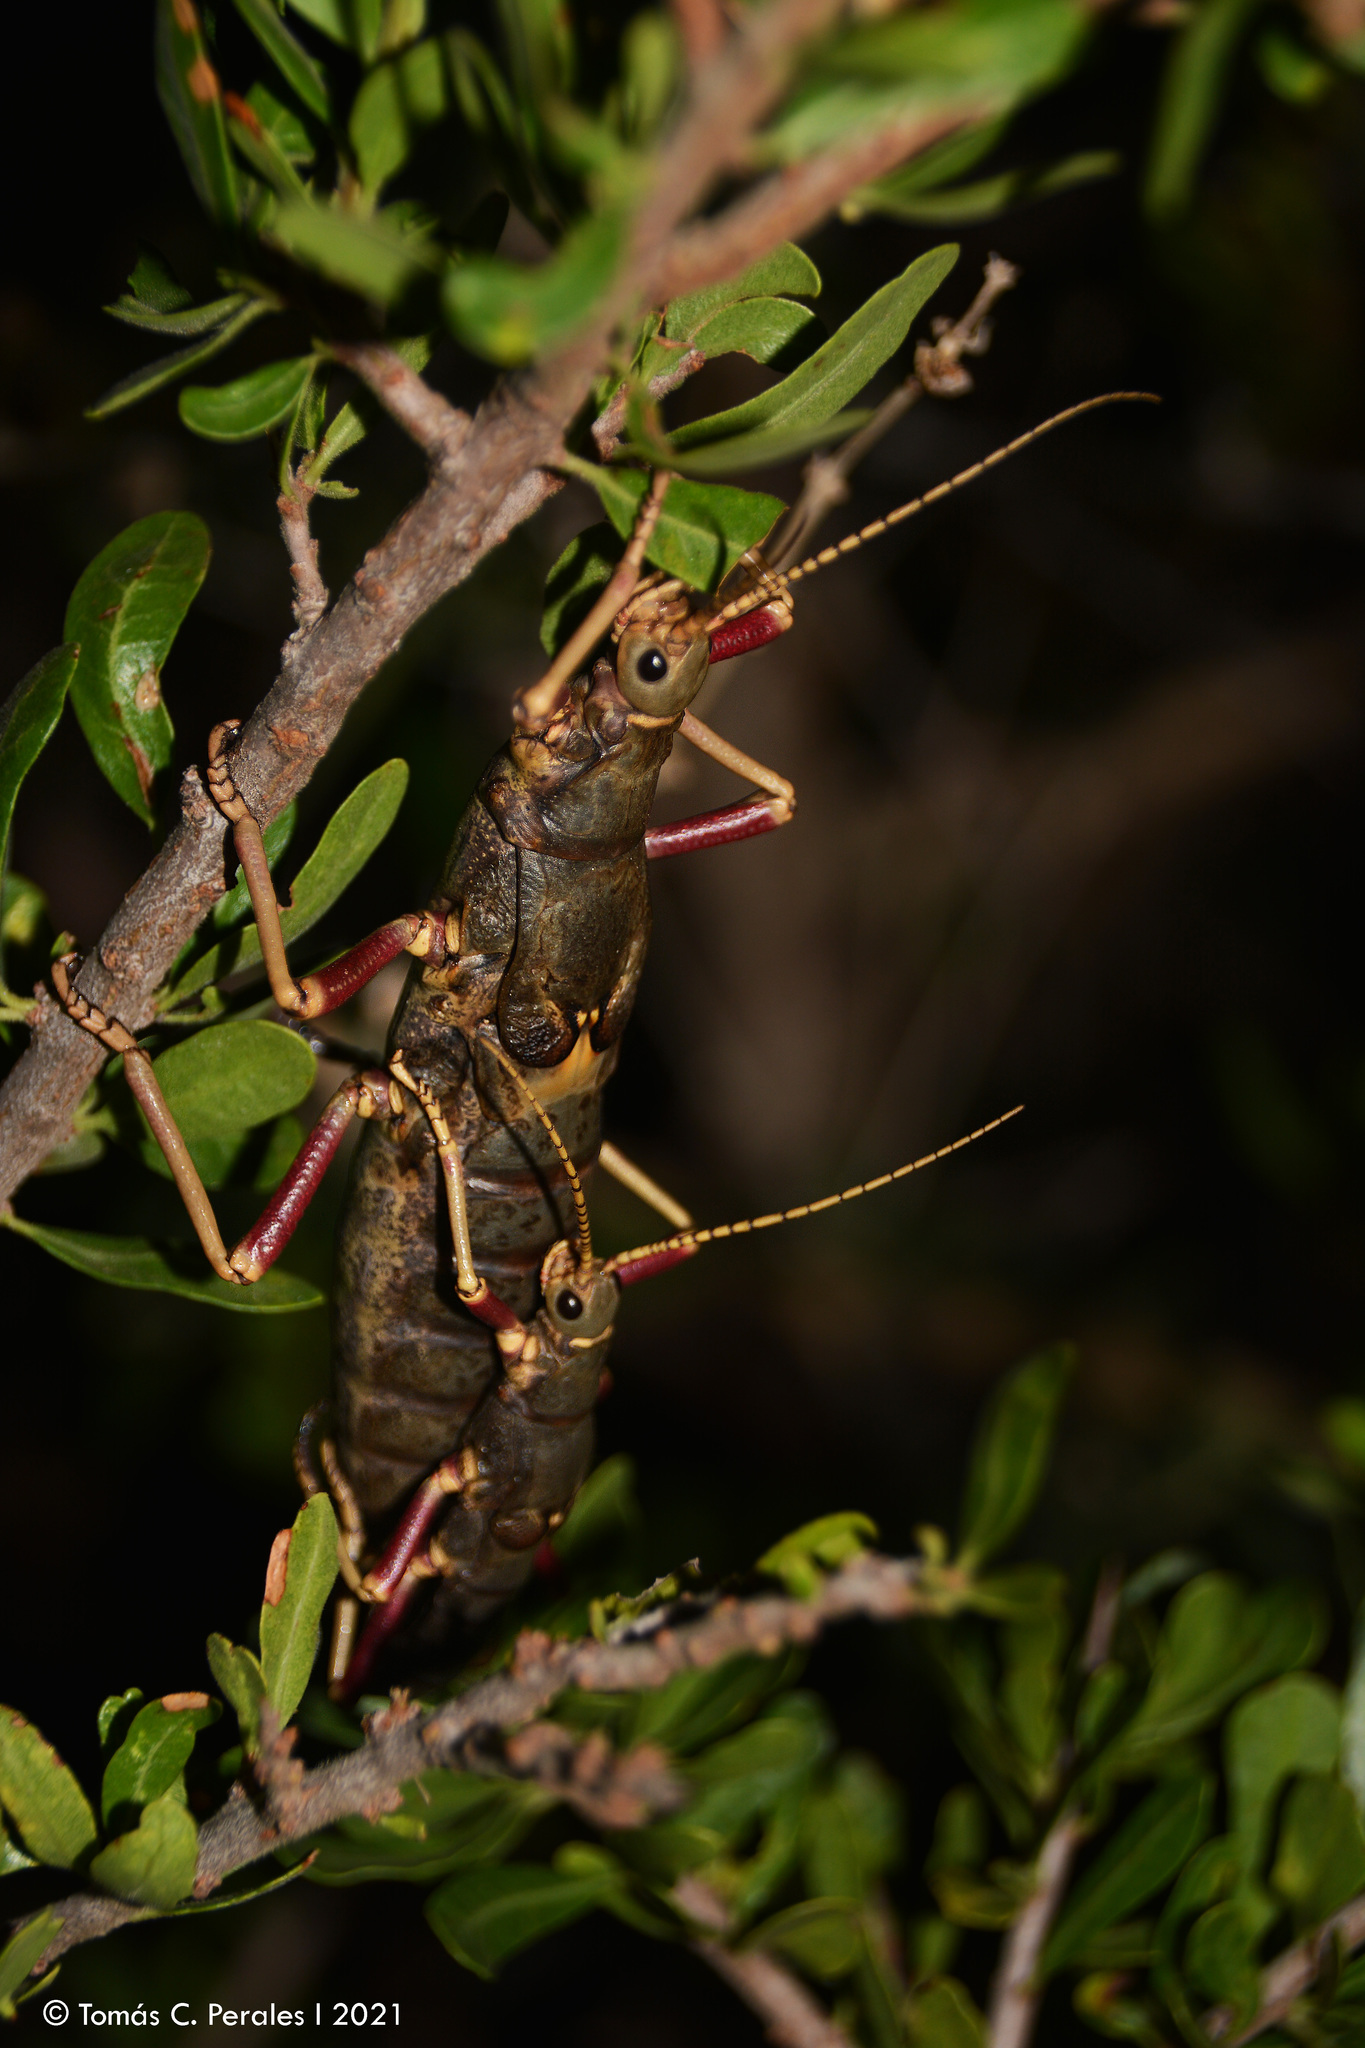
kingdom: Animalia
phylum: Arthropoda
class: Insecta
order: Phasmida
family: Agathemeridae
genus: Agathemera
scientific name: Agathemera luteola
